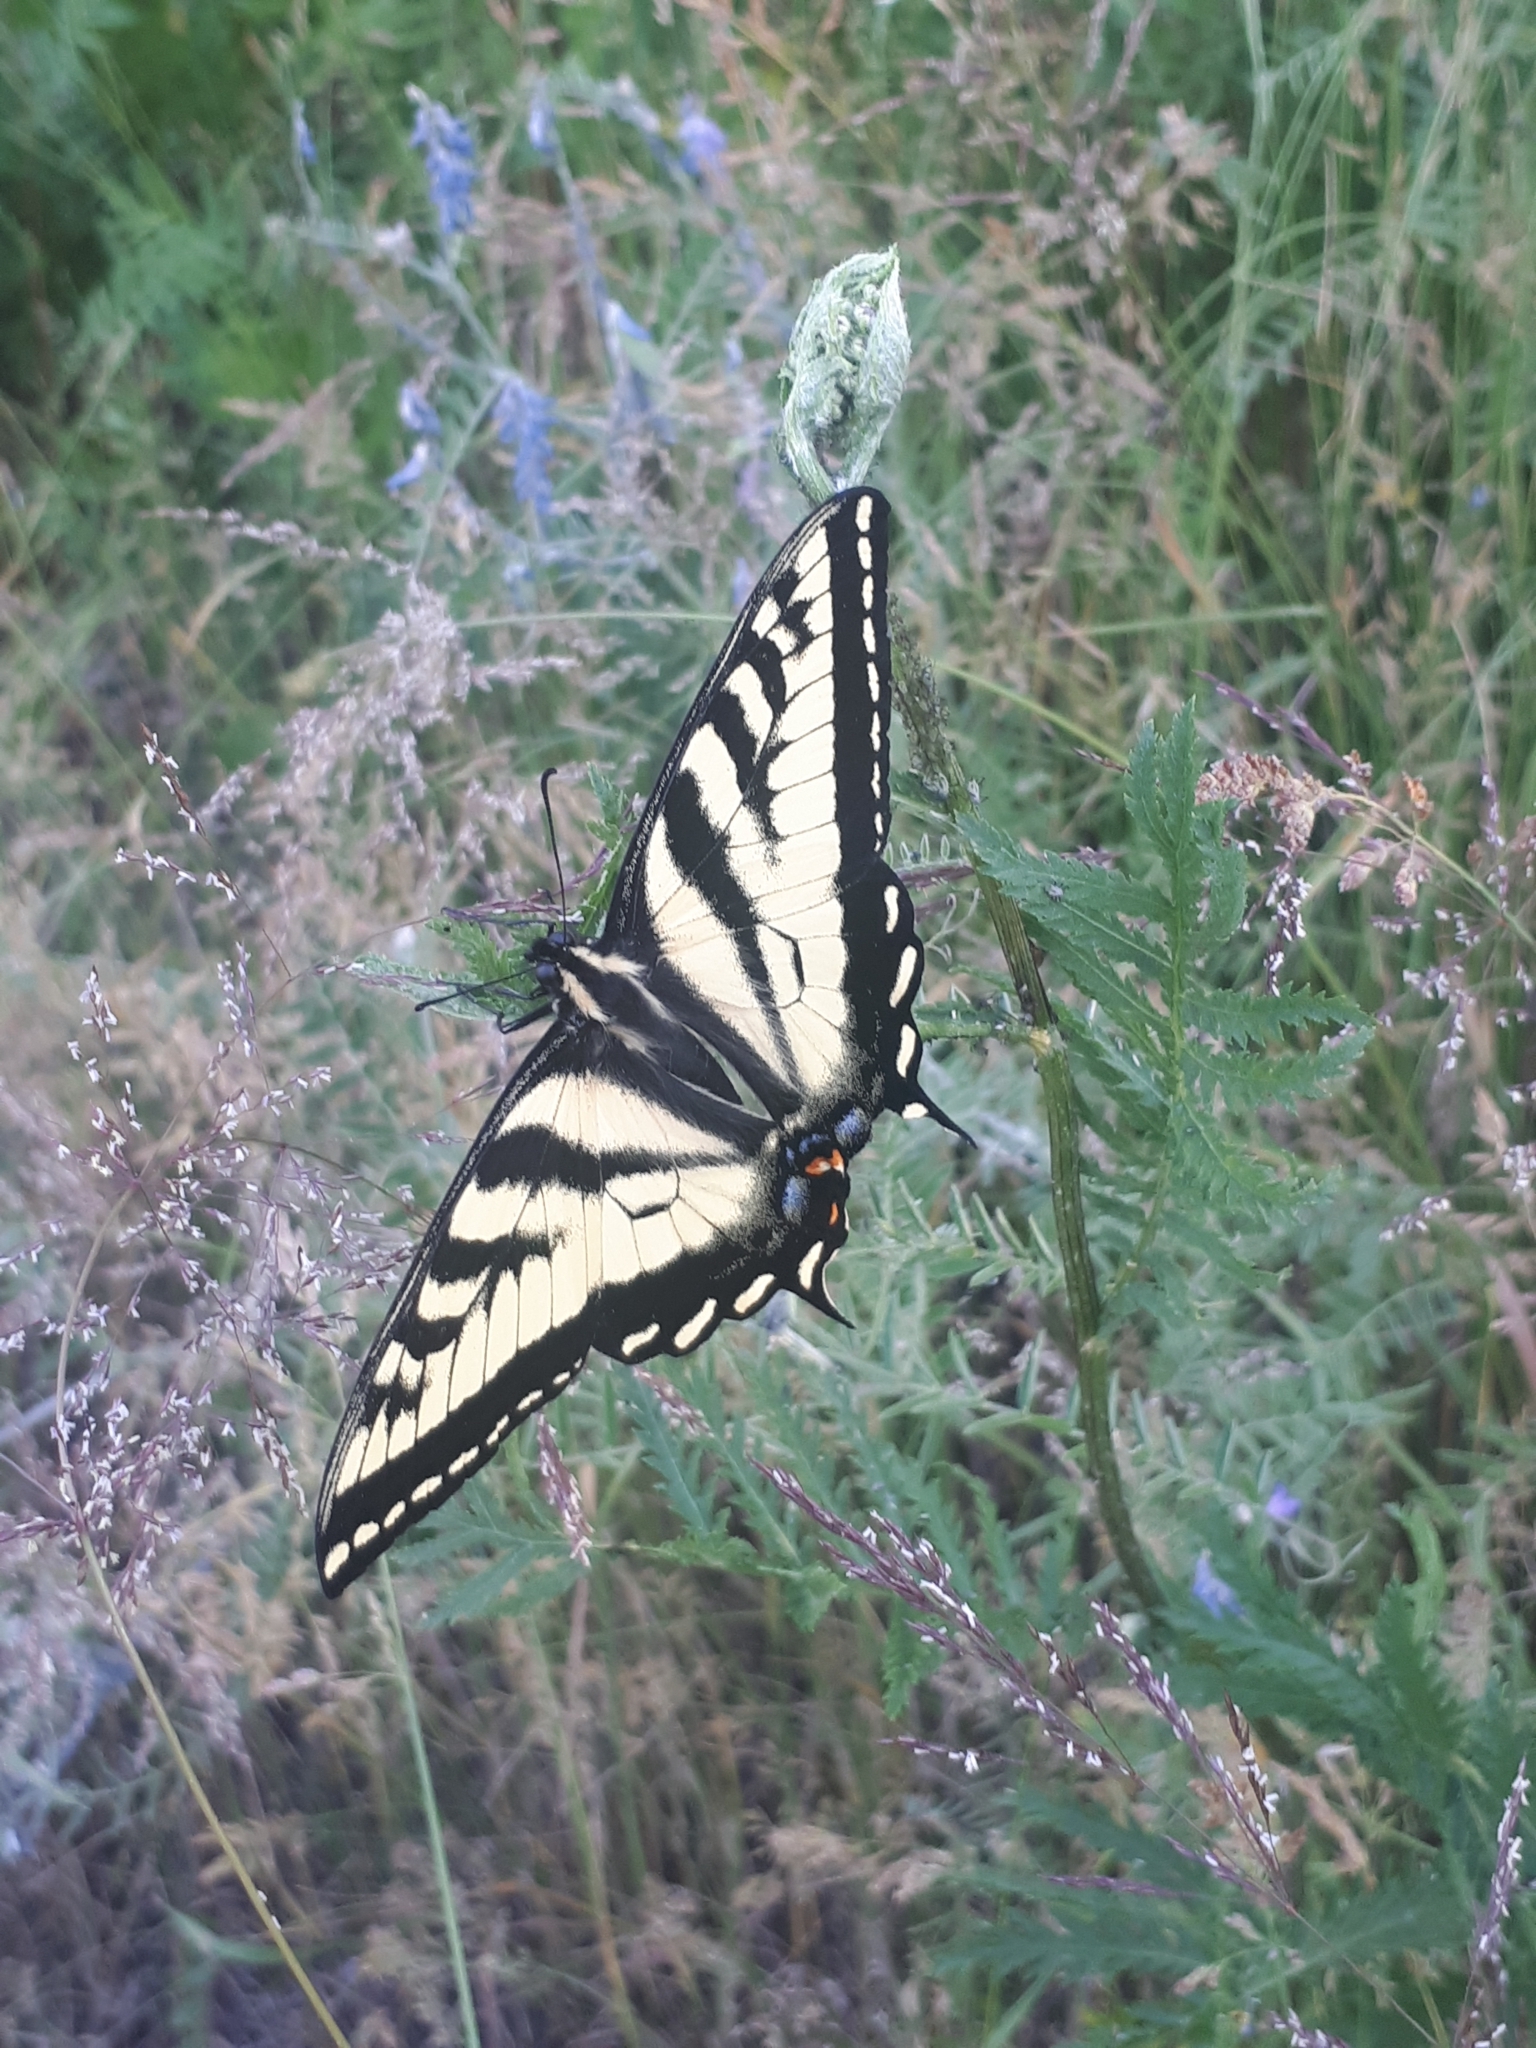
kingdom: Animalia
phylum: Arthropoda
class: Insecta
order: Lepidoptera
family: Papilionidae
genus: Papilio
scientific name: Papilio rutulus
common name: Western tiger swallowtail
